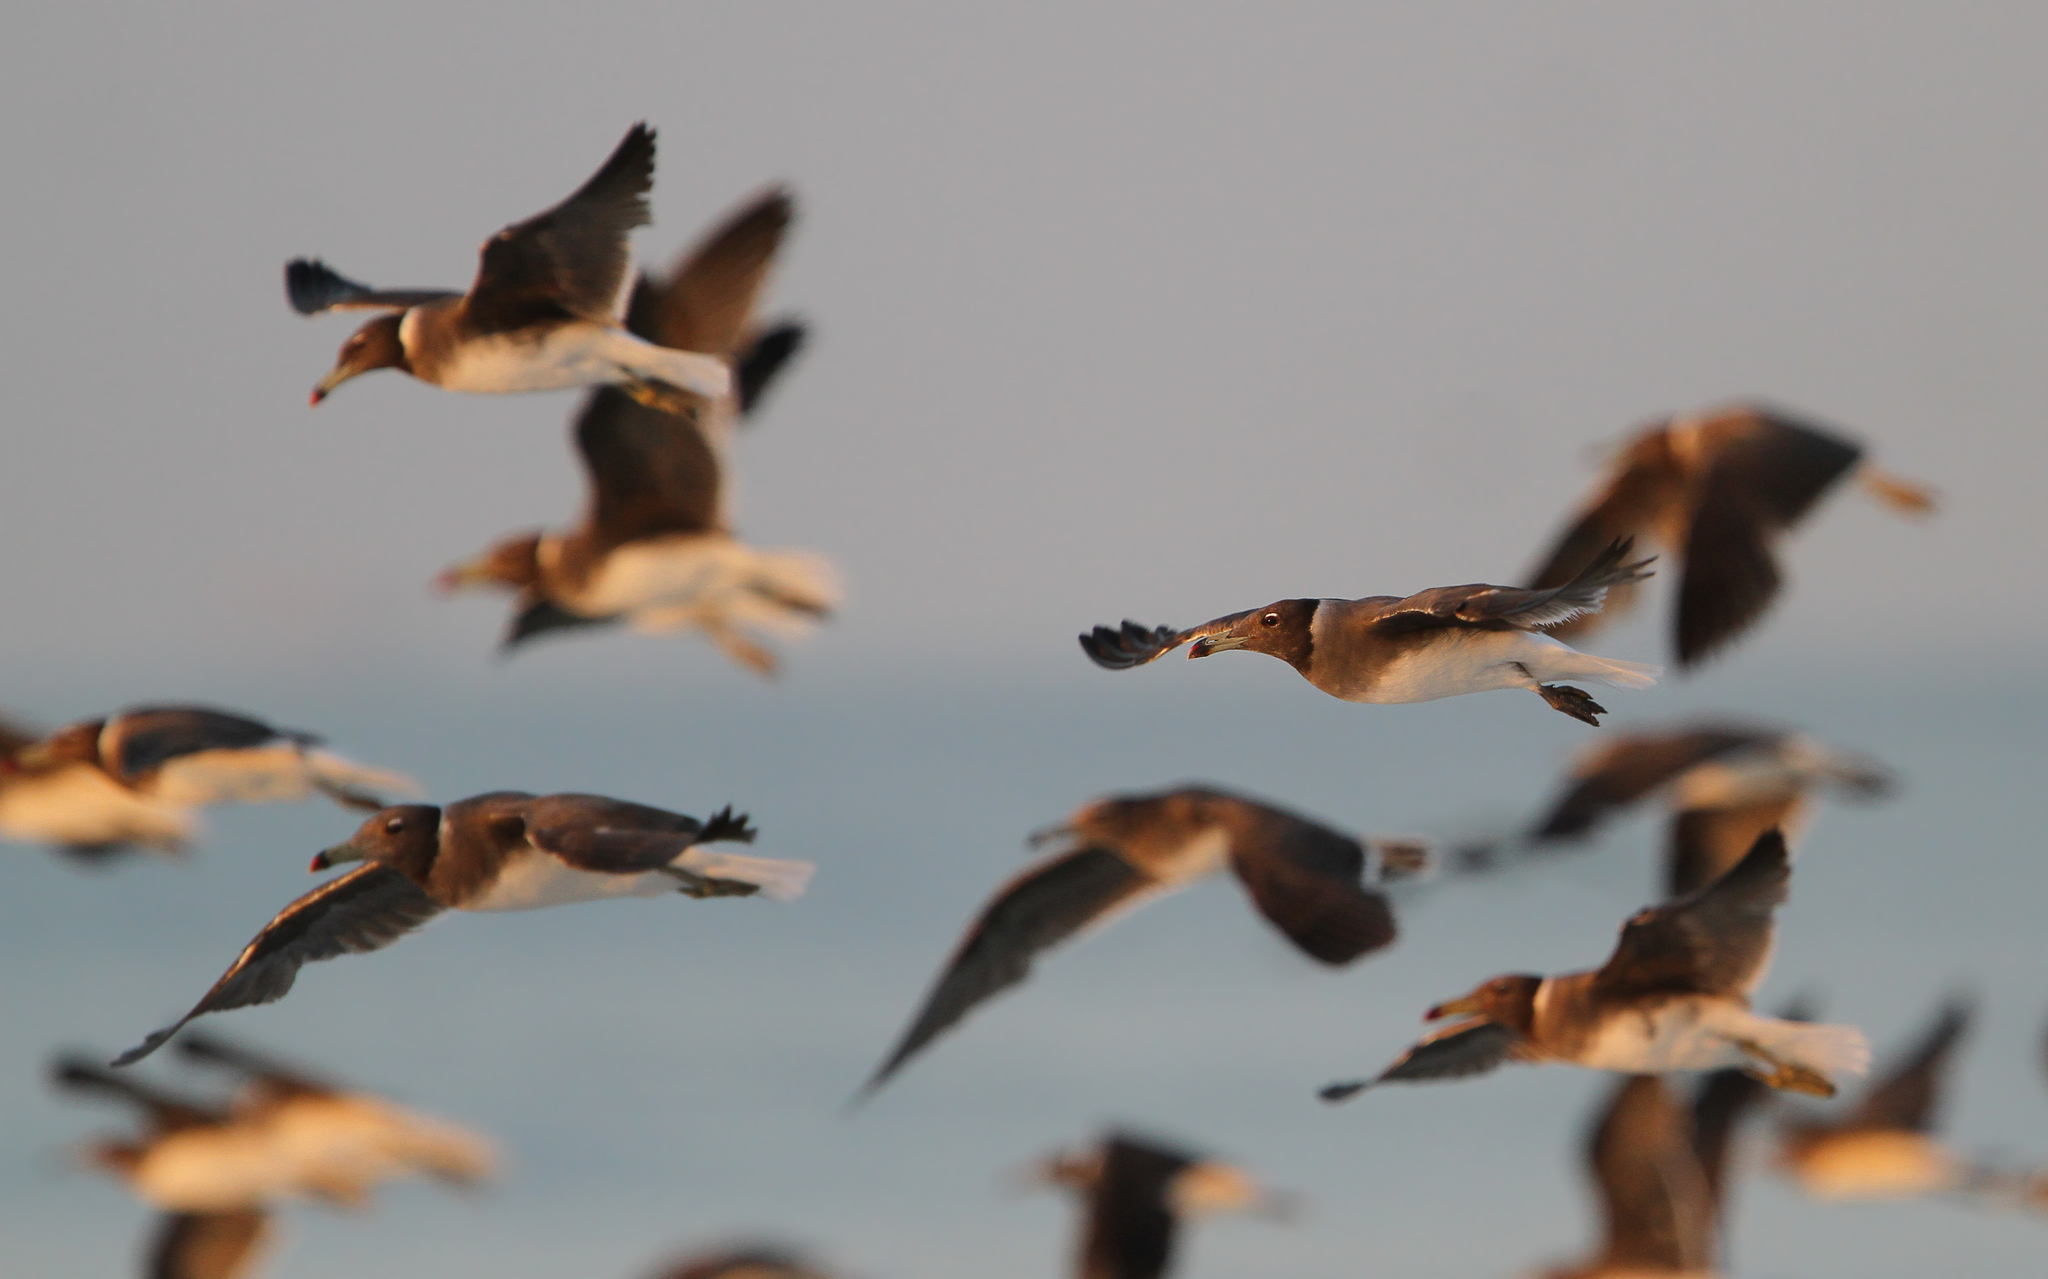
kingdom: Animalia
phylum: Chordata
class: Aves
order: Charadriiformes
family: Laridae
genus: Ichthyaetus
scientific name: Ichthyaetus hemprichii
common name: Sooty gull
